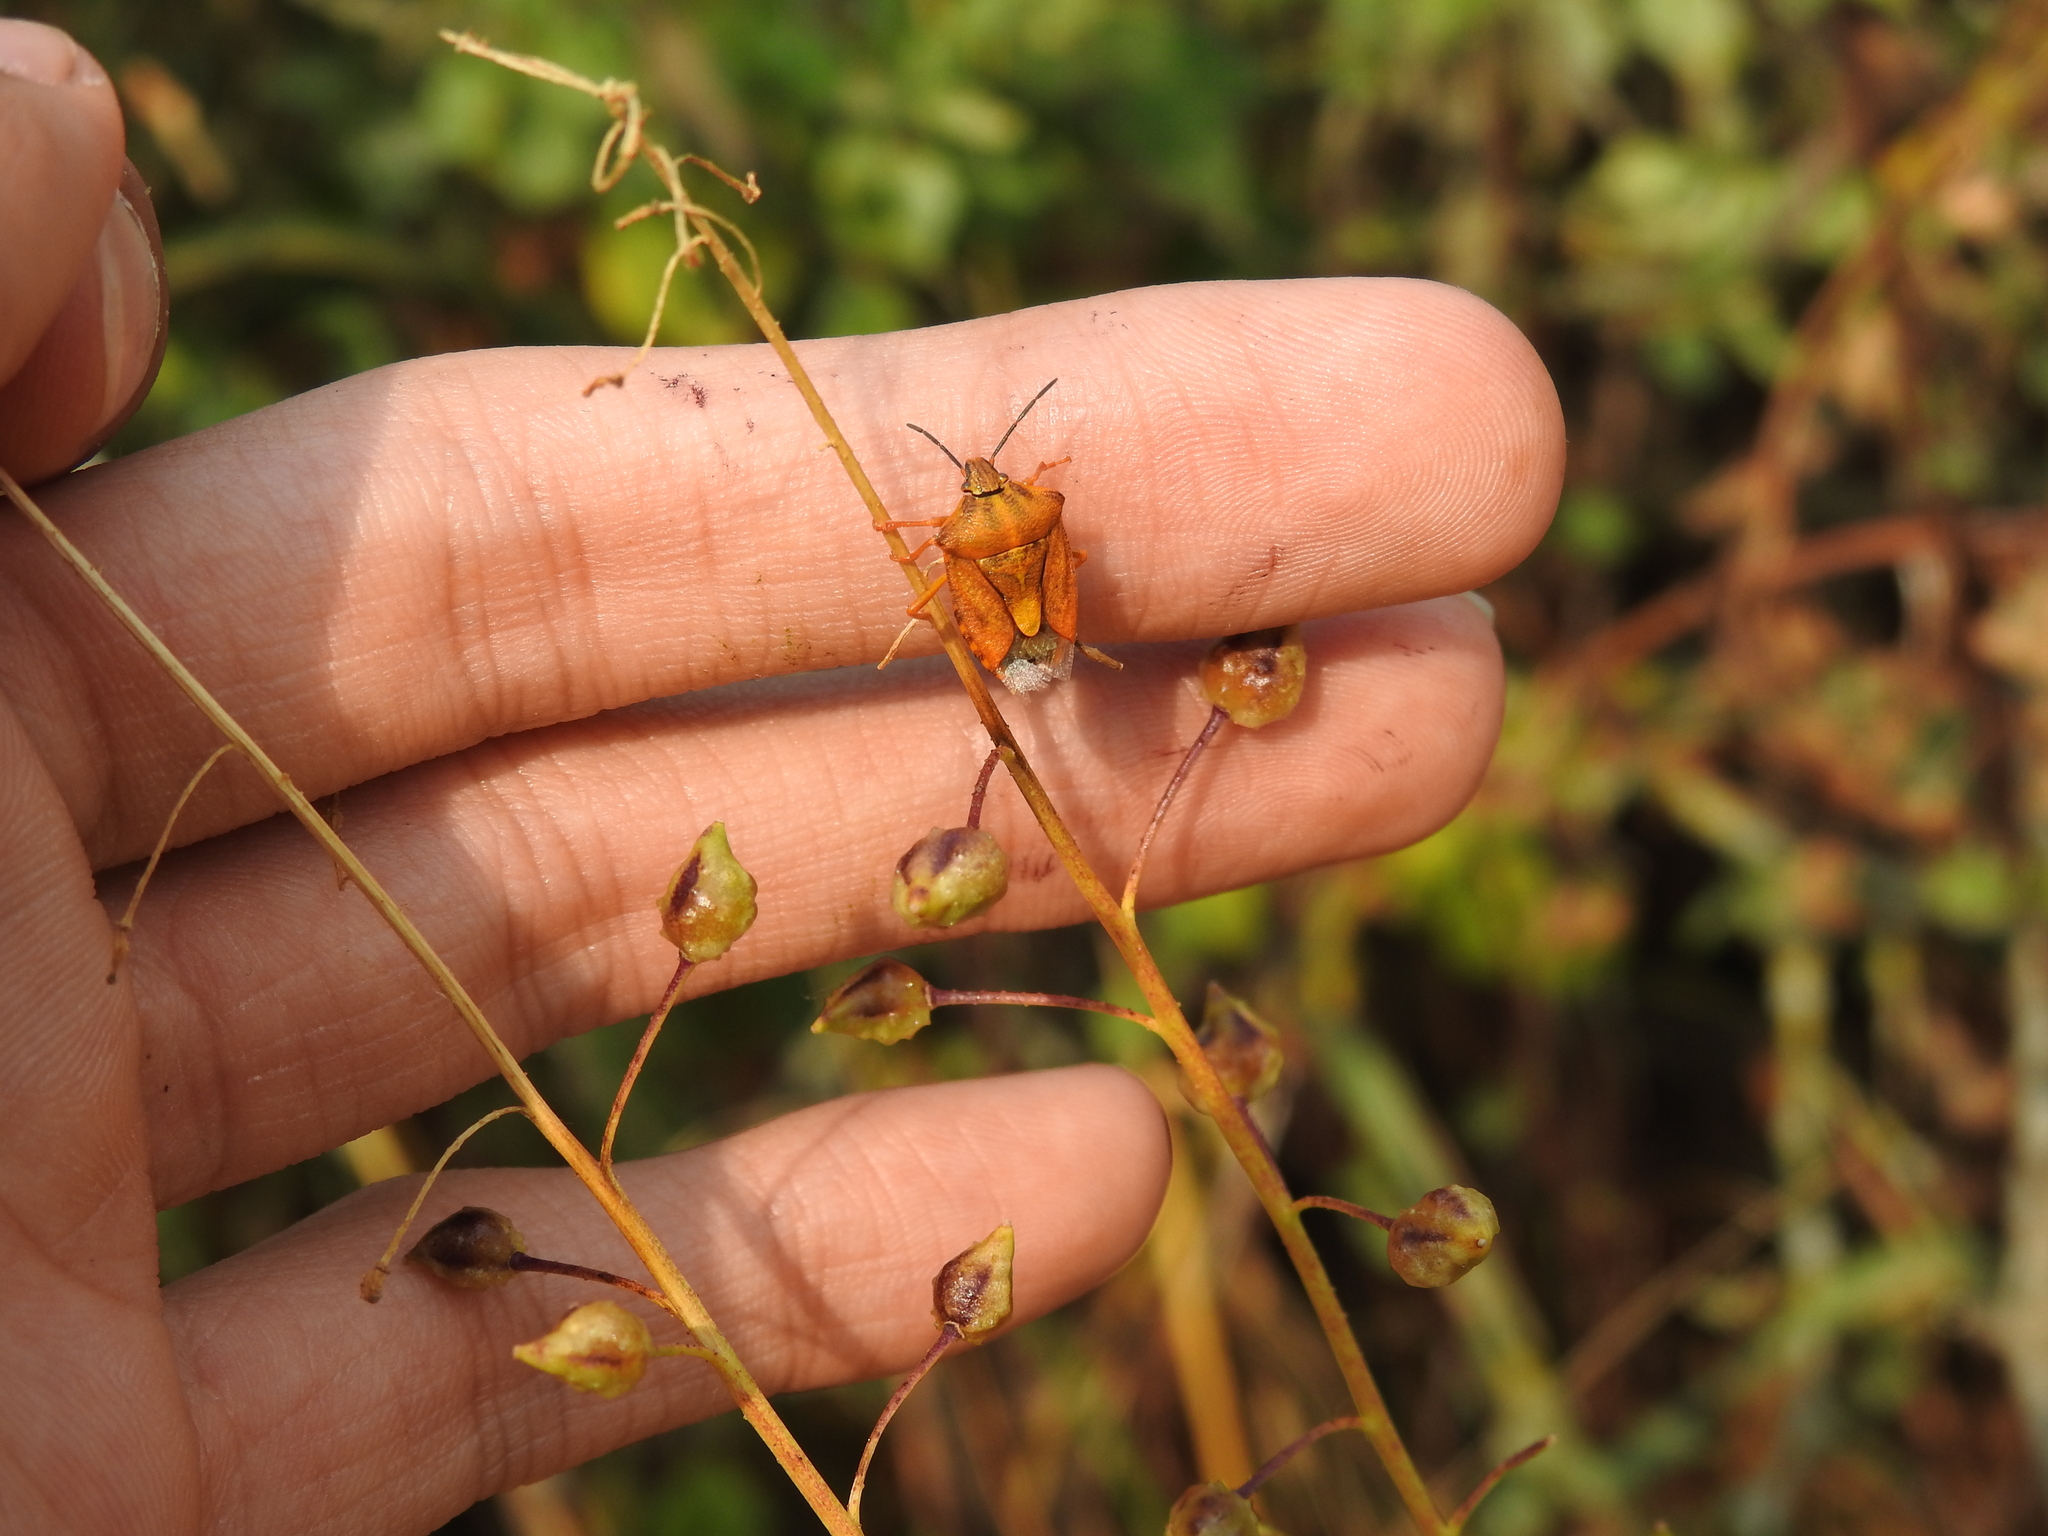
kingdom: Animalia
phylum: Arthropoda
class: Insecta
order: Hemiptera
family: Pentatomidae
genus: Carpocoris
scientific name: Carpocoris purpureipennis
